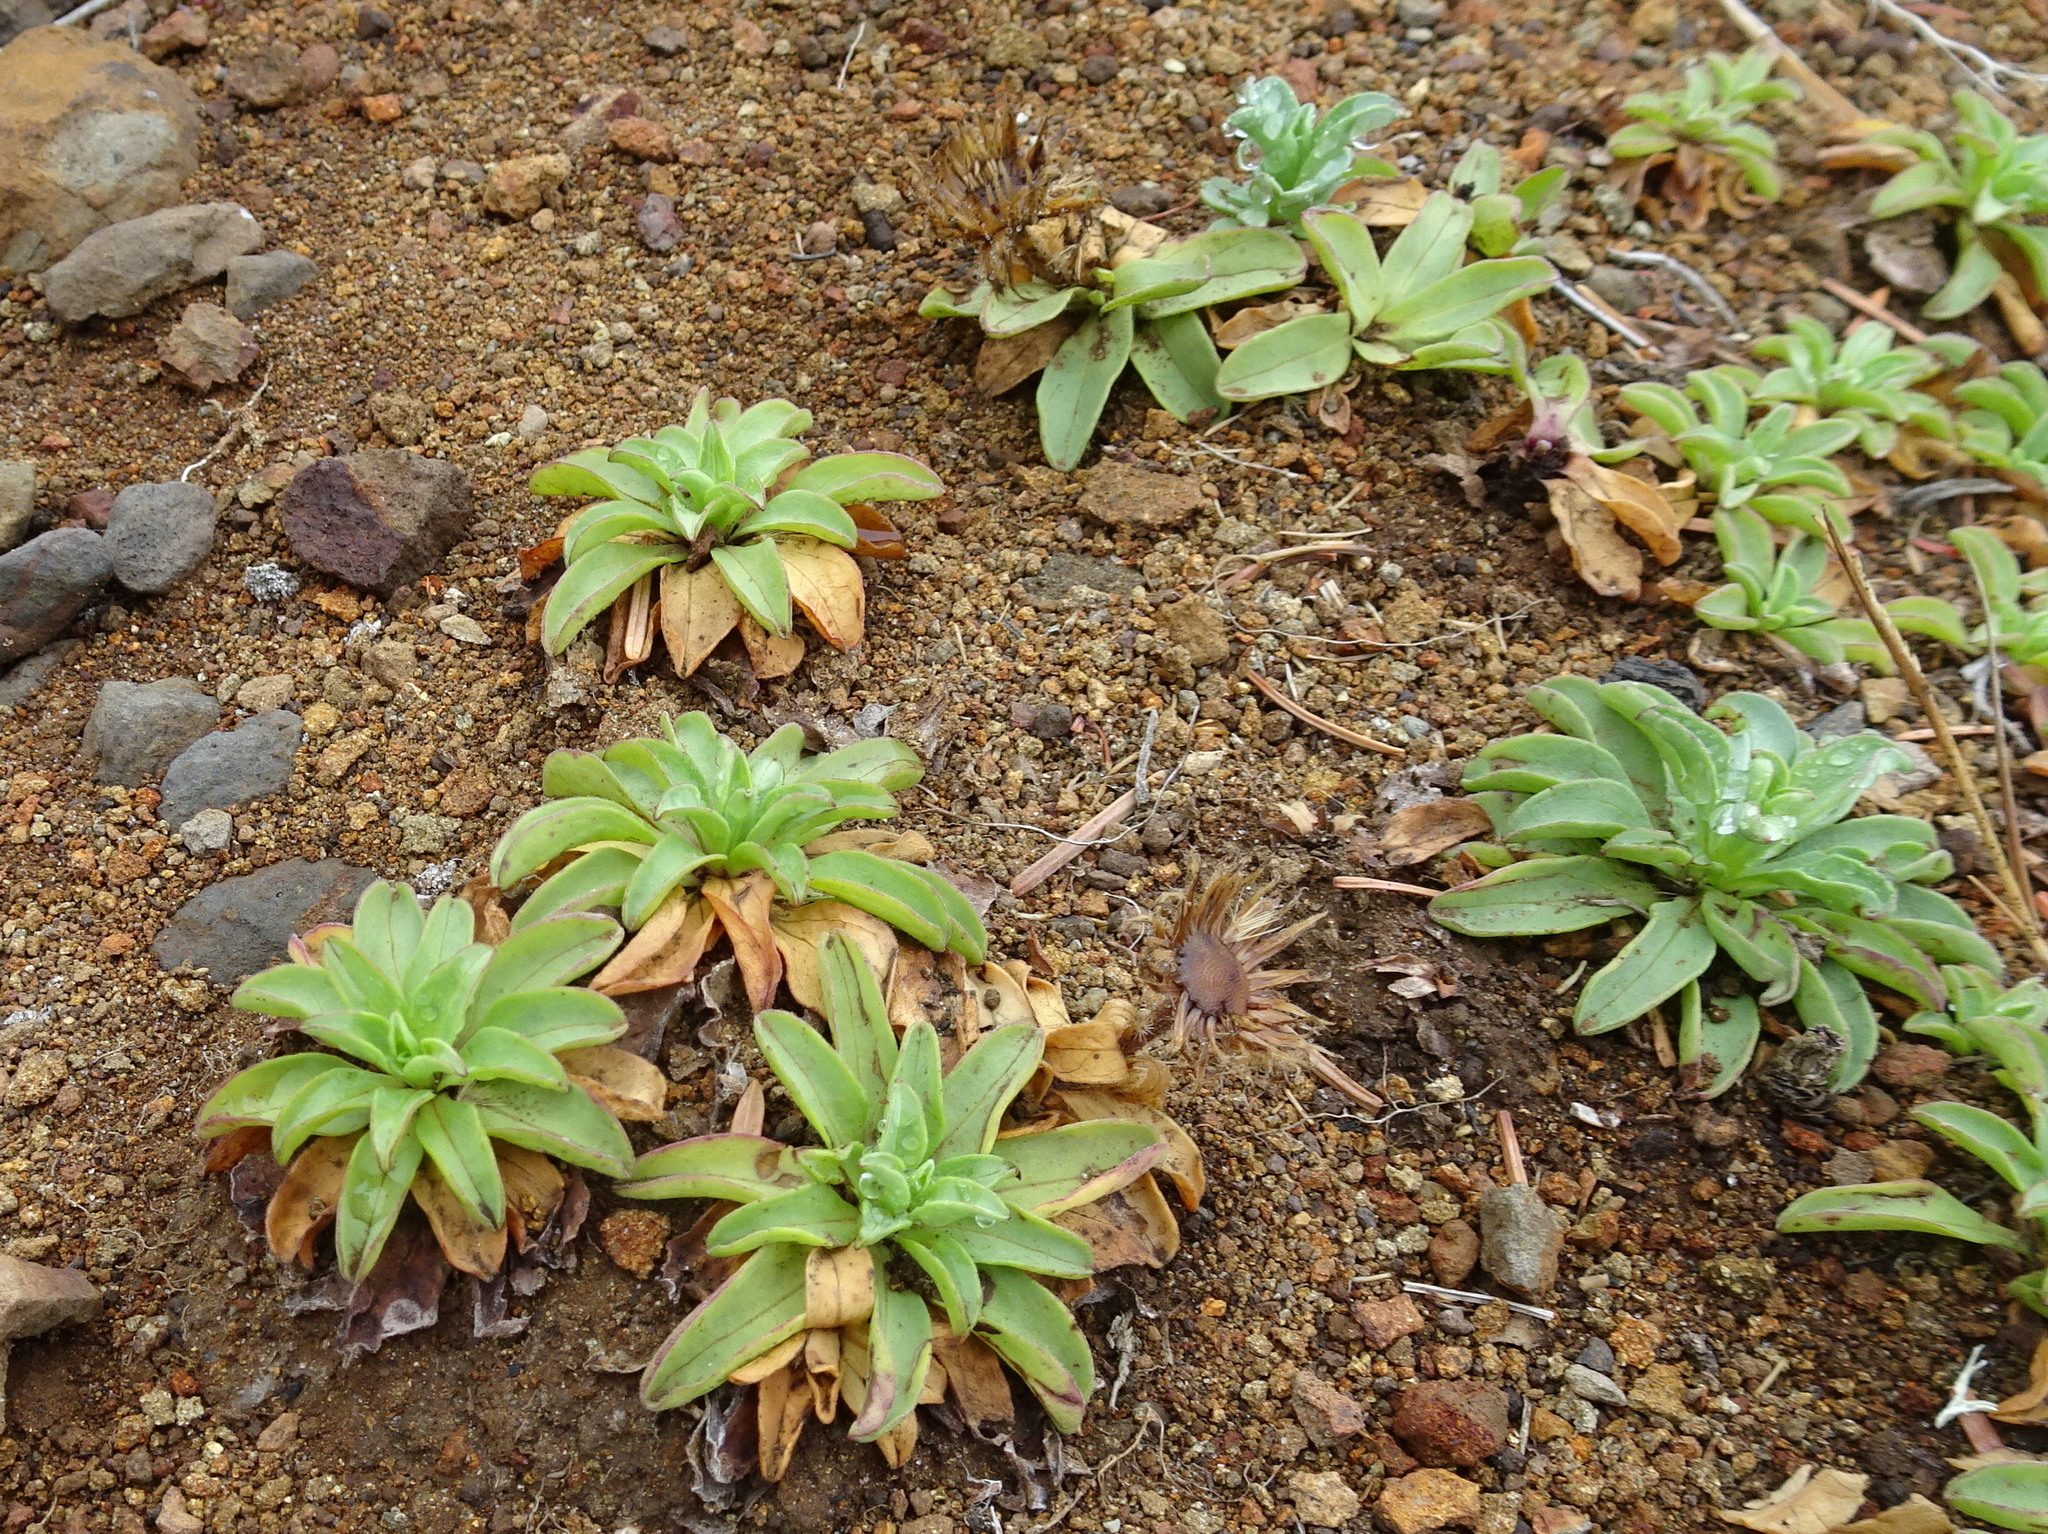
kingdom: Plantae
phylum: Tracheophyta
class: Magnoliopsida
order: Asterales
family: Asteraceae
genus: Erigeron
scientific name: Erigeron glaucus
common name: Seaside daisy
